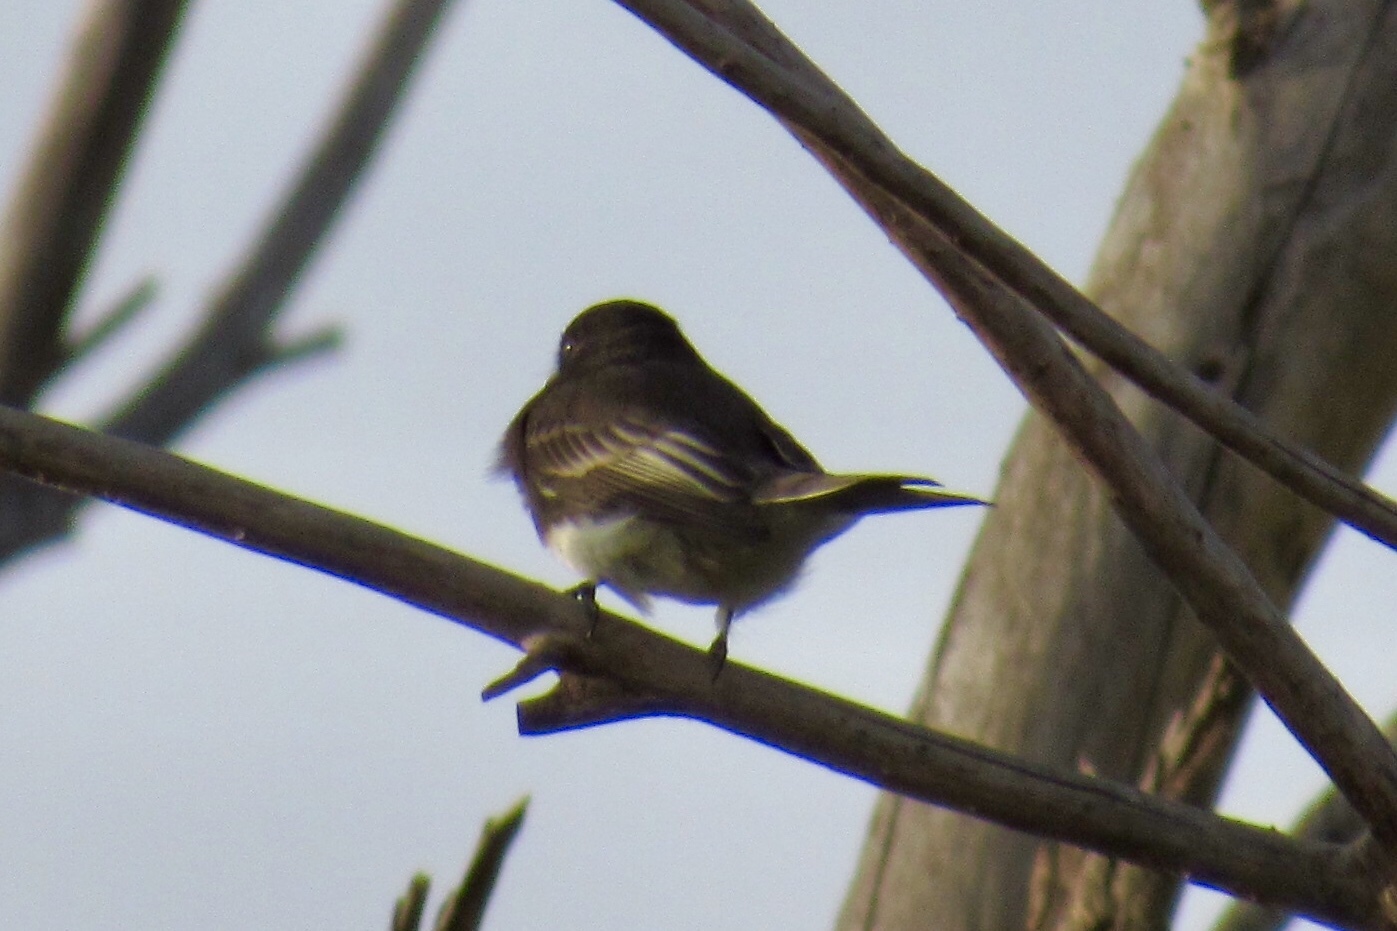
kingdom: Animalia
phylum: Chordata
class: Aves
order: Passeriformes
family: Tyrannidae
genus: Sayornis
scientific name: Sayornis nigricans
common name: Black phoebe
